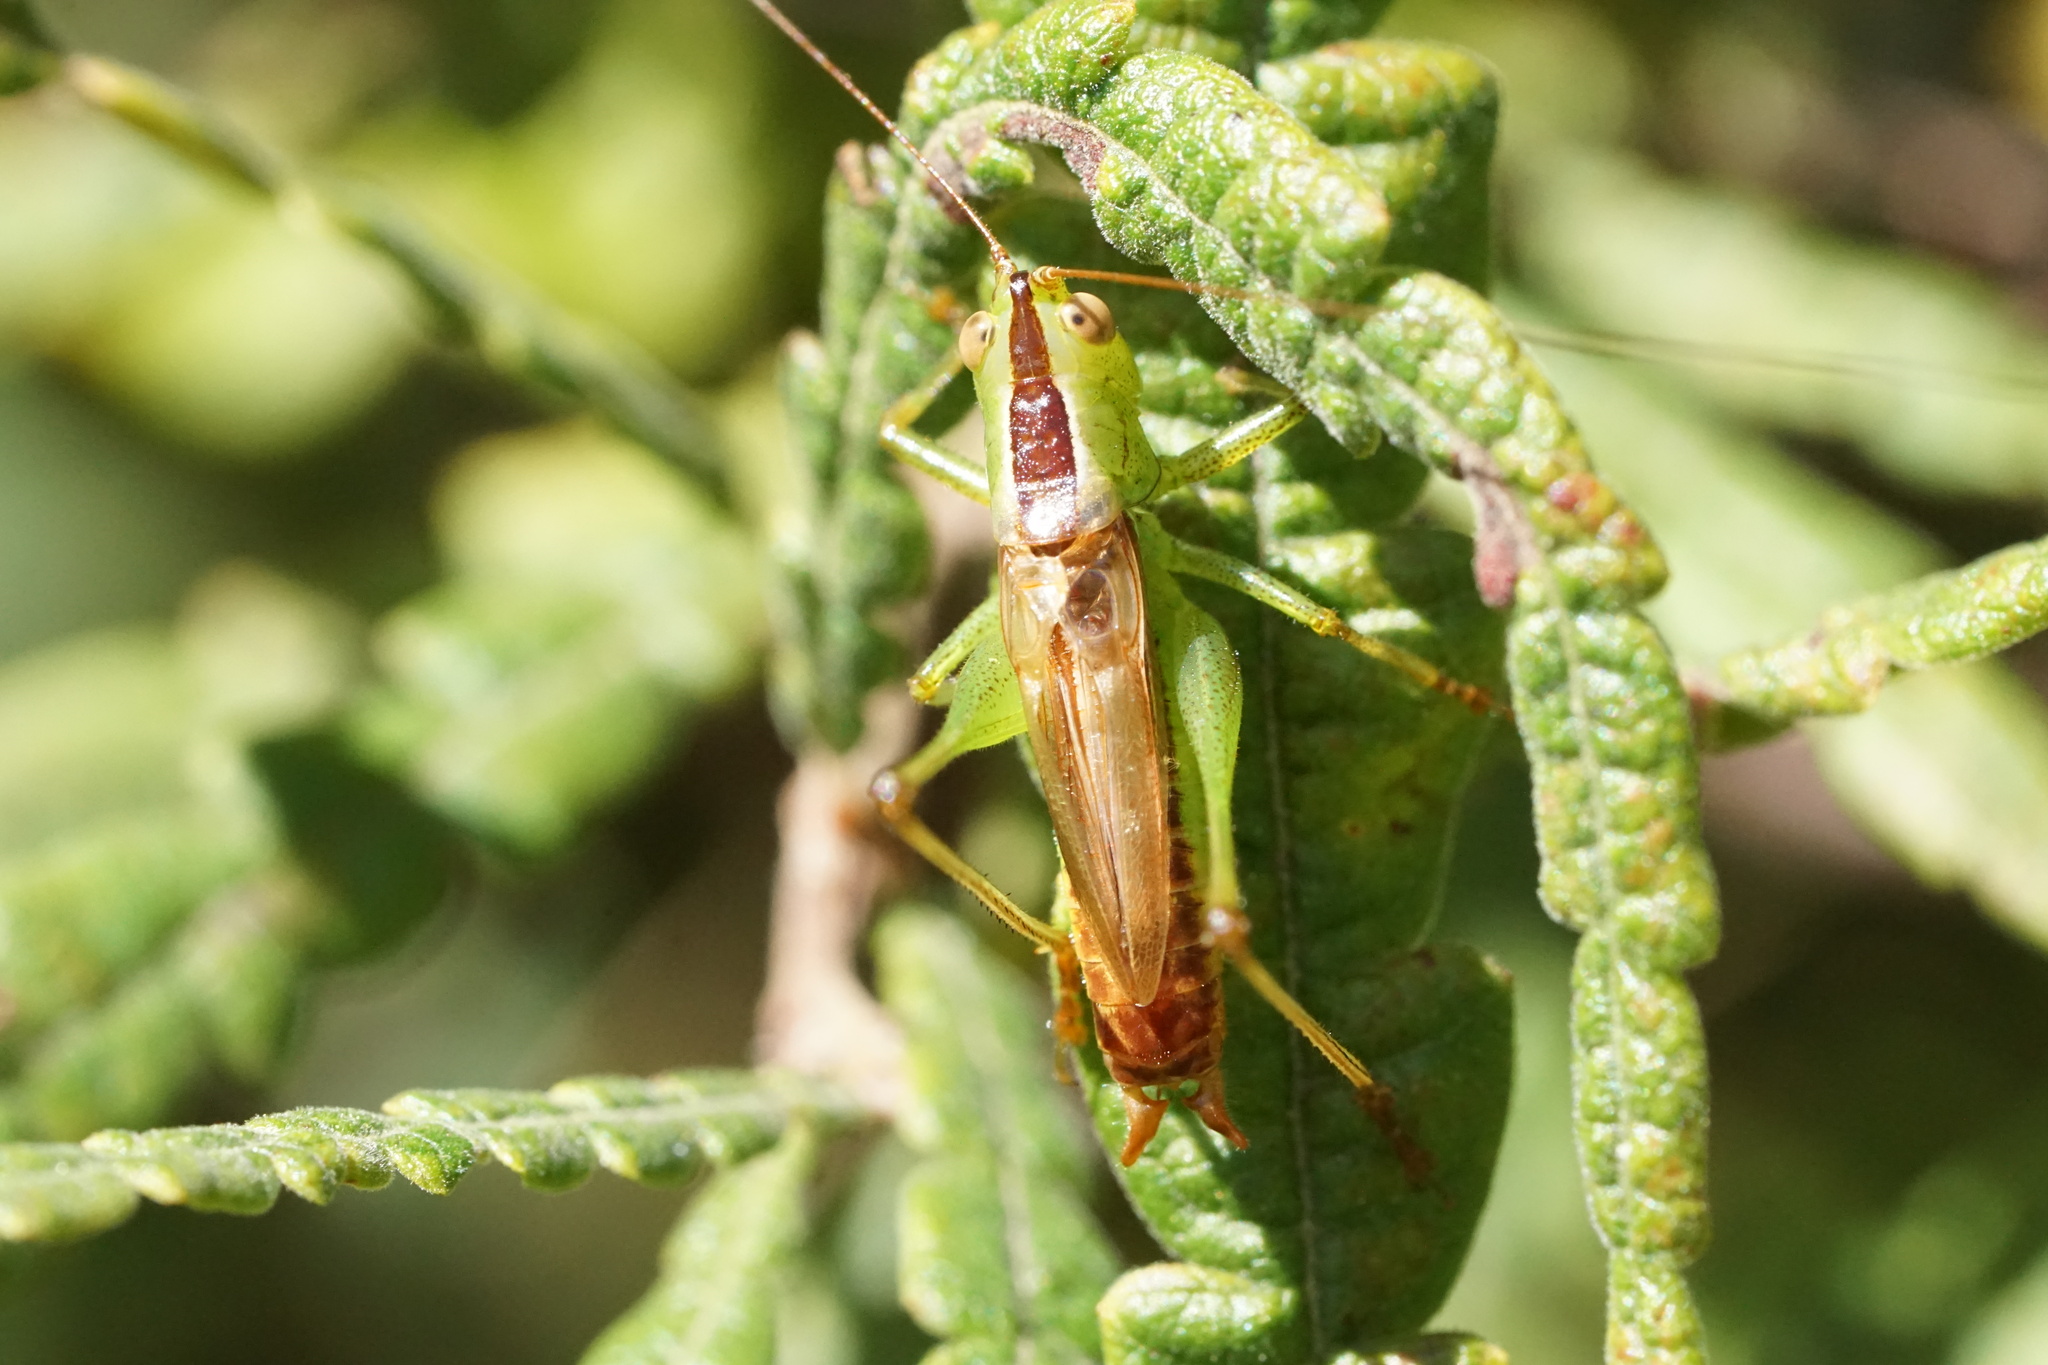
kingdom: Animalia
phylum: Arthropoda
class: Insecta
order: Orthoptera
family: Tettigoniidae
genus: Conocephalus
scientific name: Conocephalus brevipennis
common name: Short-winged meadow katydid
